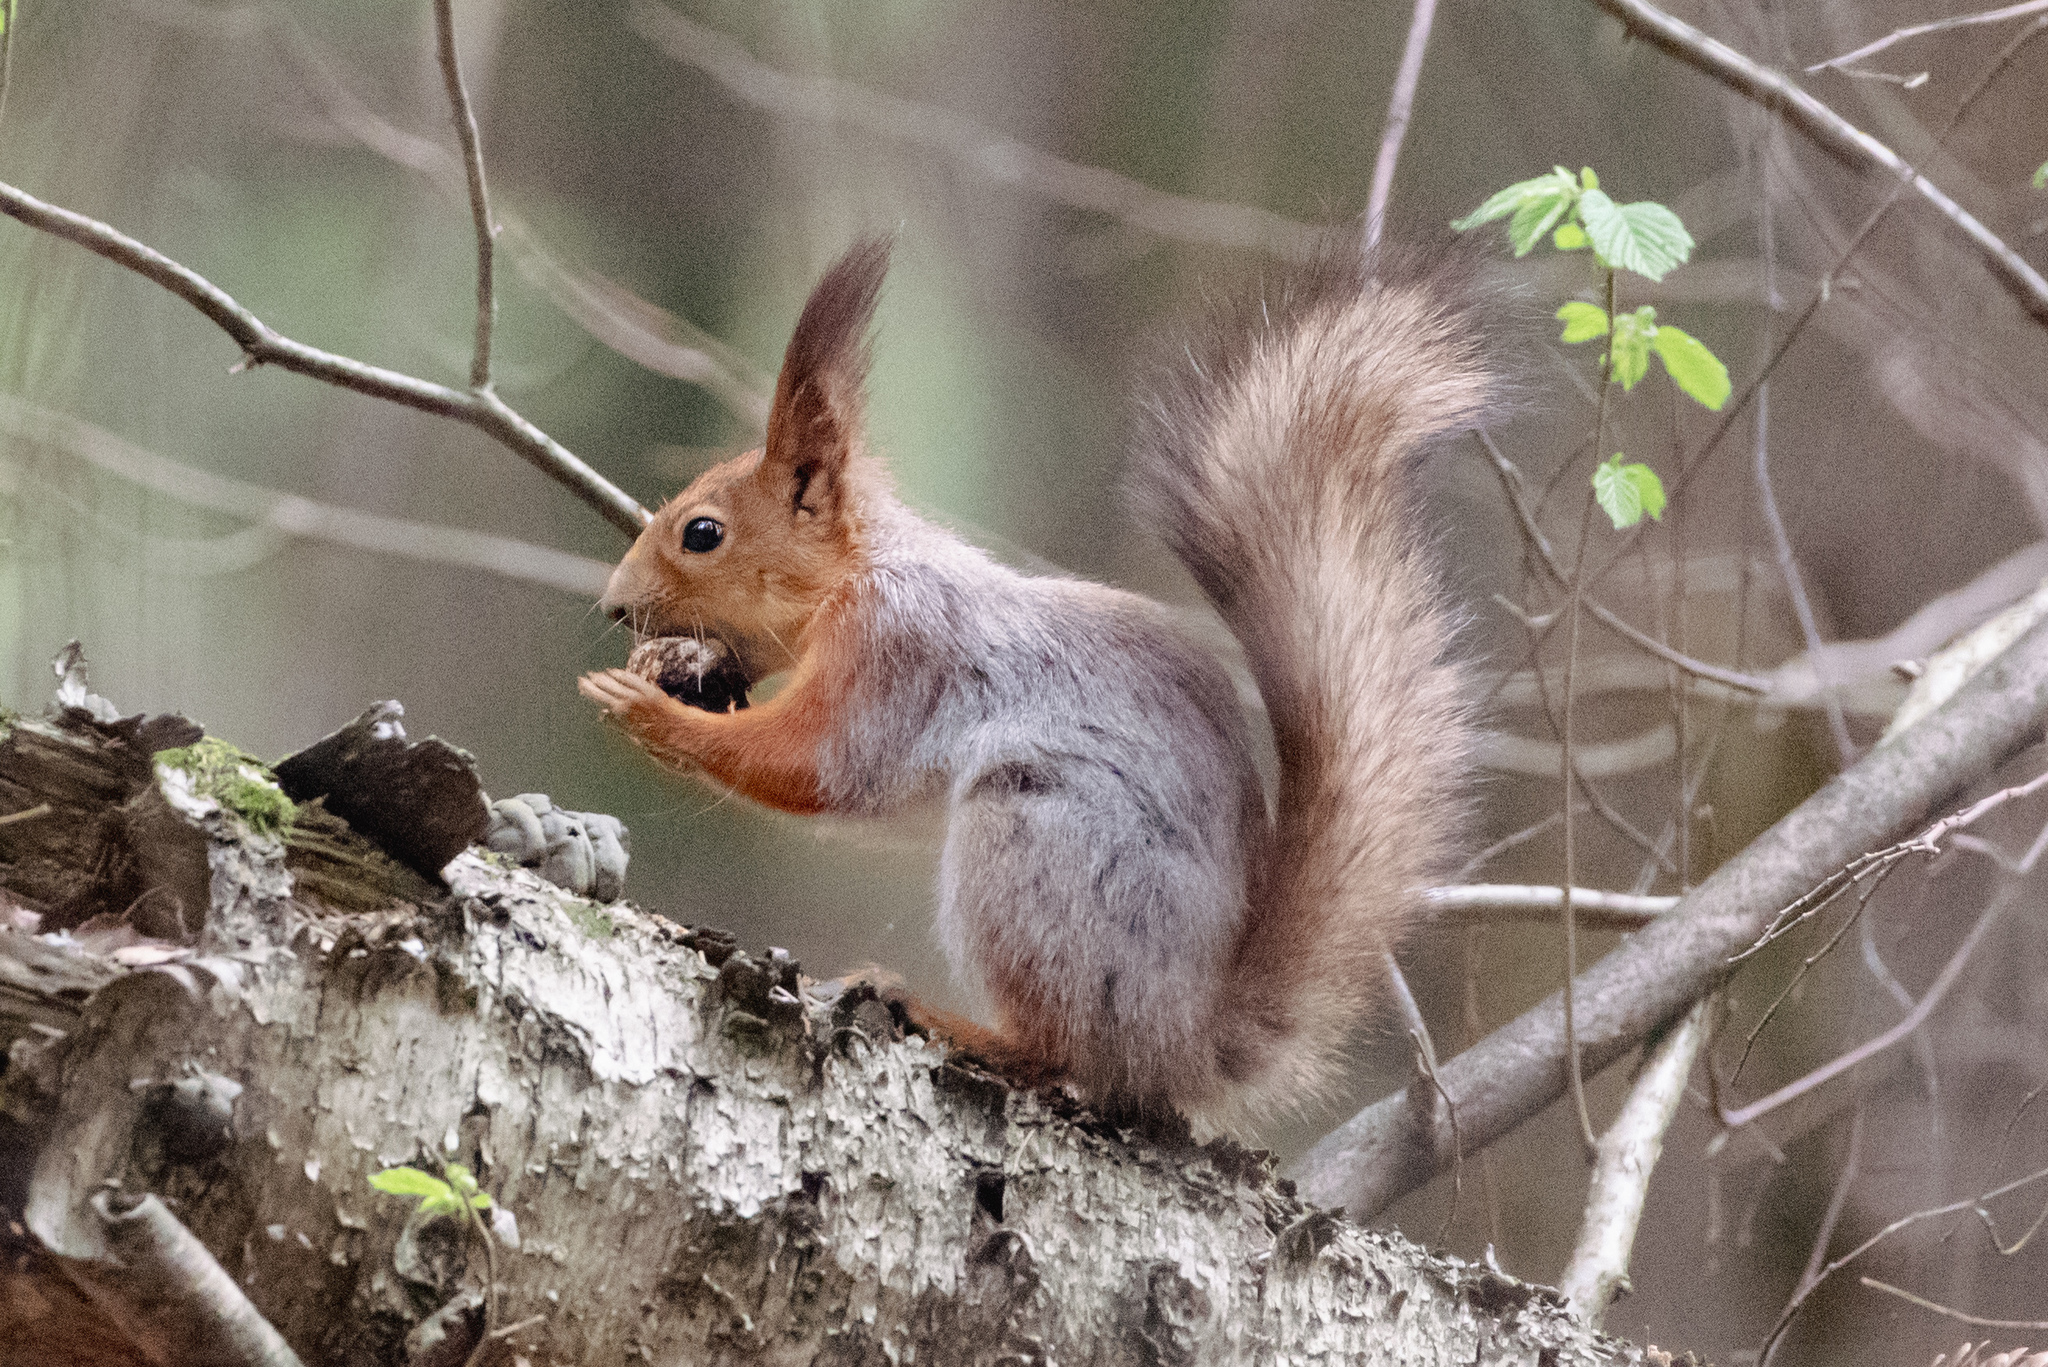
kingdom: Animalia
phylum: Chordata
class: Mammalia
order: Rodentia
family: Sciuridae
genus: Sciurus
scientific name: Sciurus vulgaris
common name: Eurasian red squirrel
